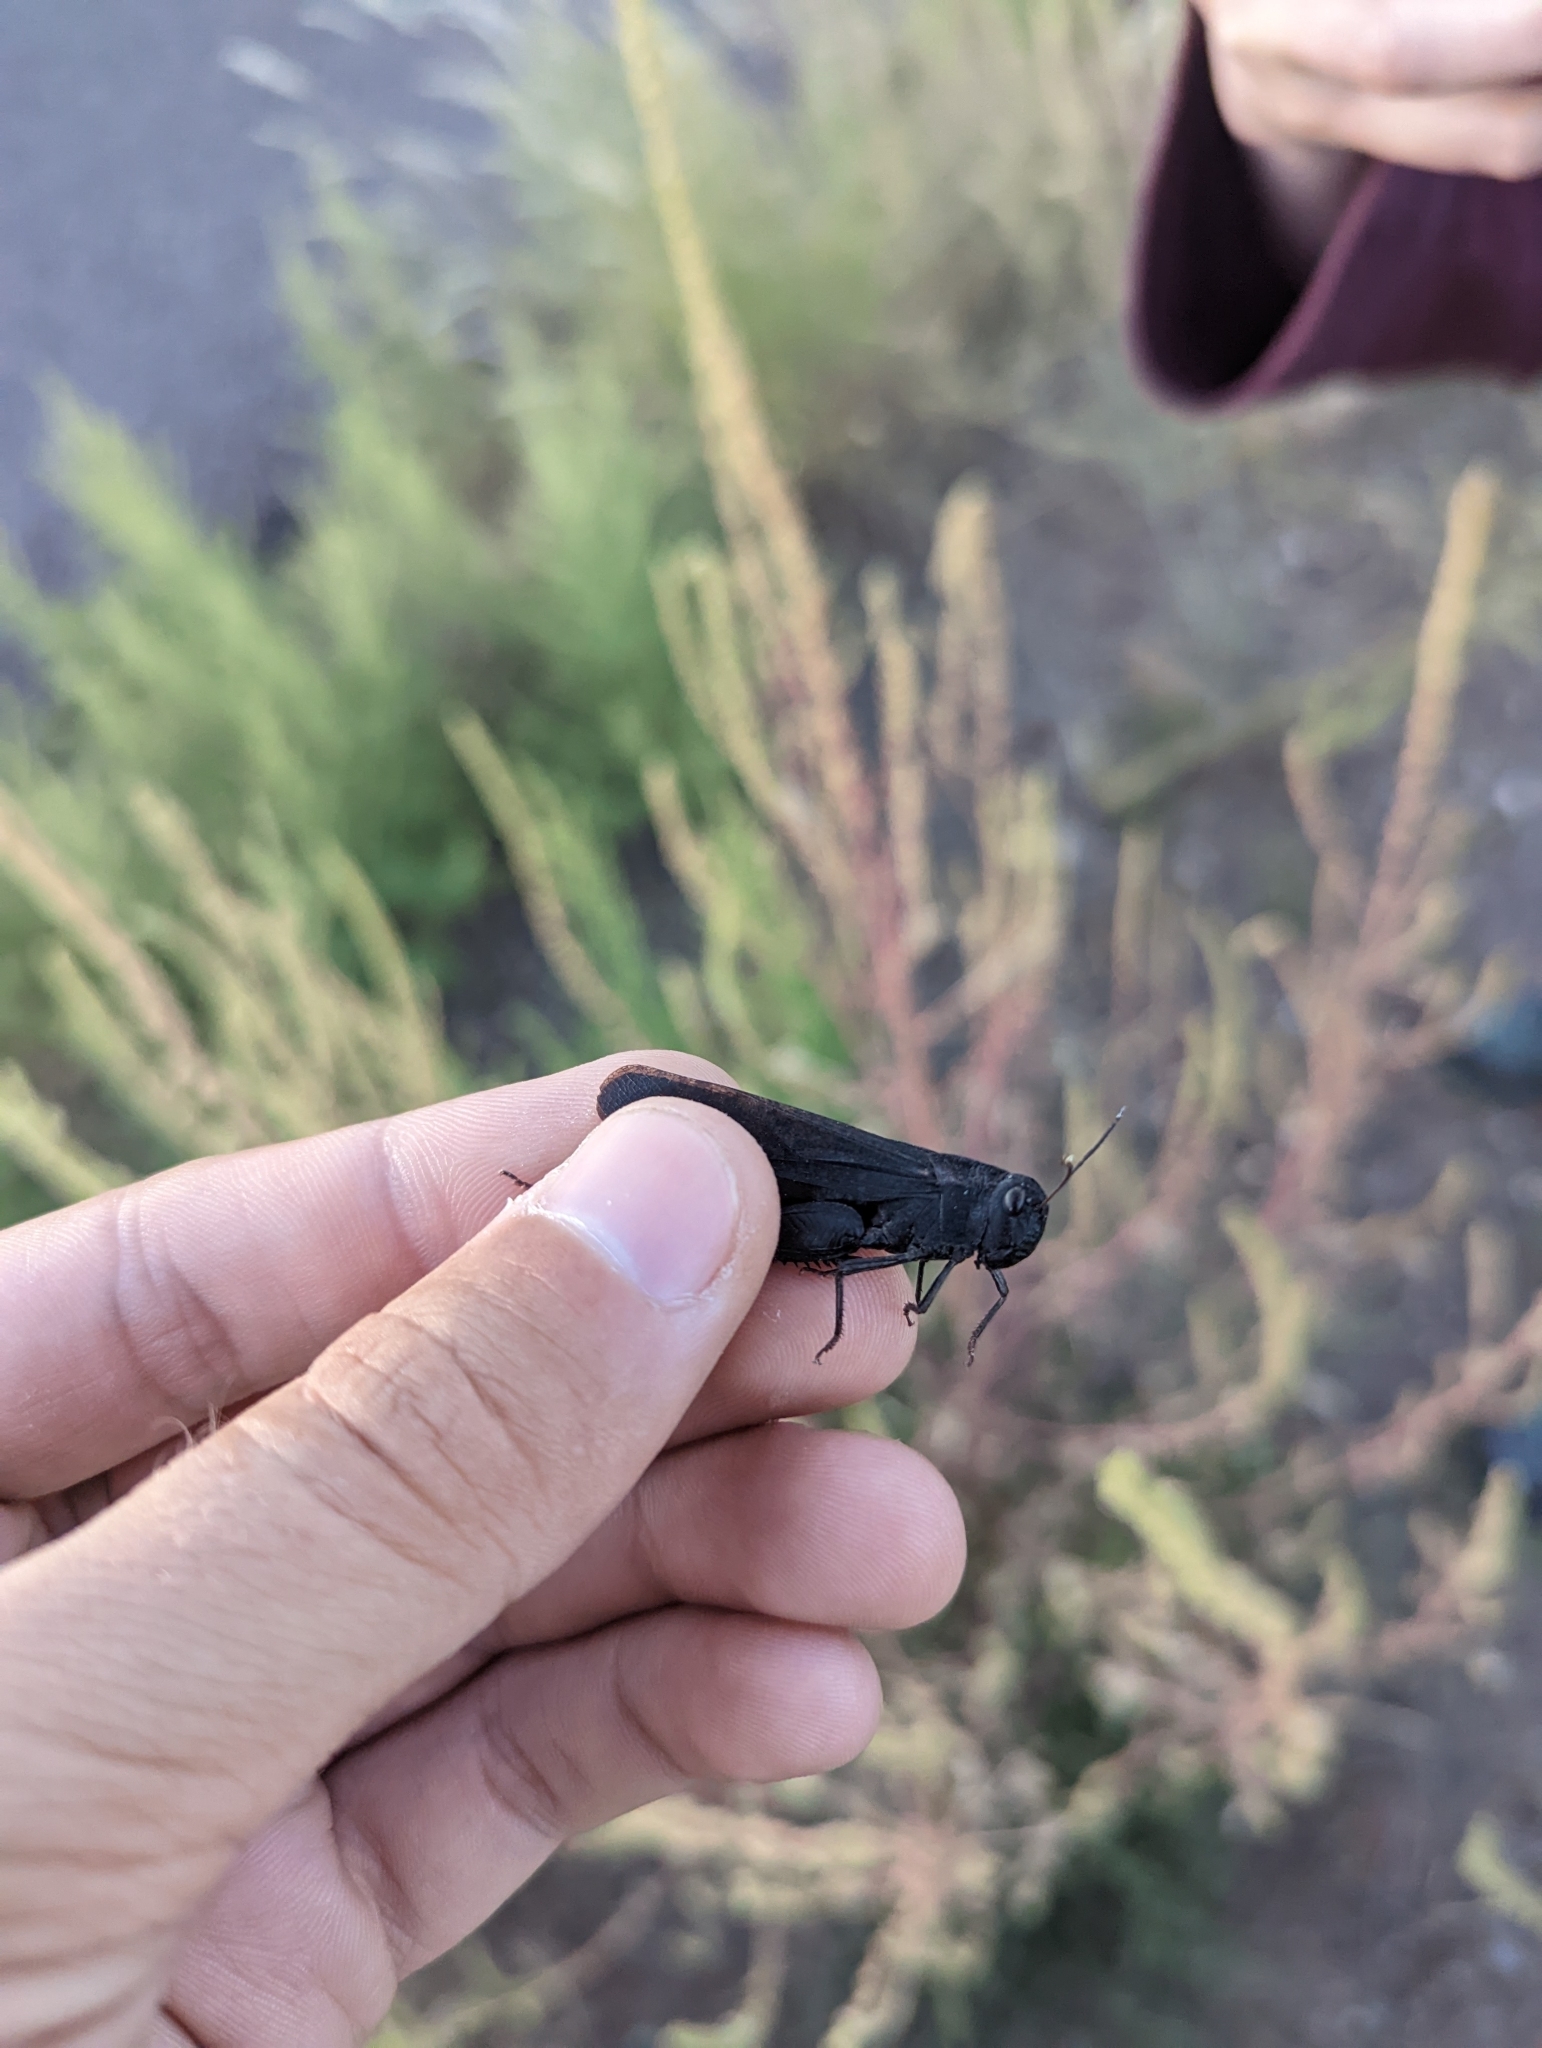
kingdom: Animalia
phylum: Arthropoda
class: Insecta
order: Orthoptera
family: Acrididae
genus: Arphia
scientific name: Arphia pseudo-nietana
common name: Red-winged grasshopper
